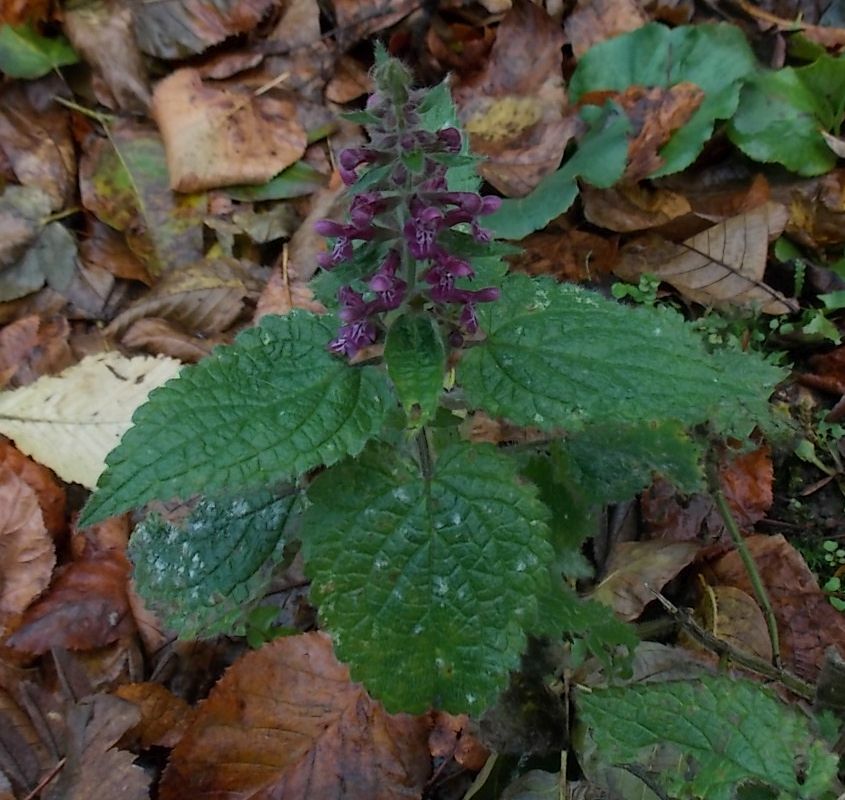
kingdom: Plantae
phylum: Tracheophyta
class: Magnoliopsida
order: Lamiales
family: Lamiaceae
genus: Stachys
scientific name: Stachys sylvatica
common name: Hedge woundwort
